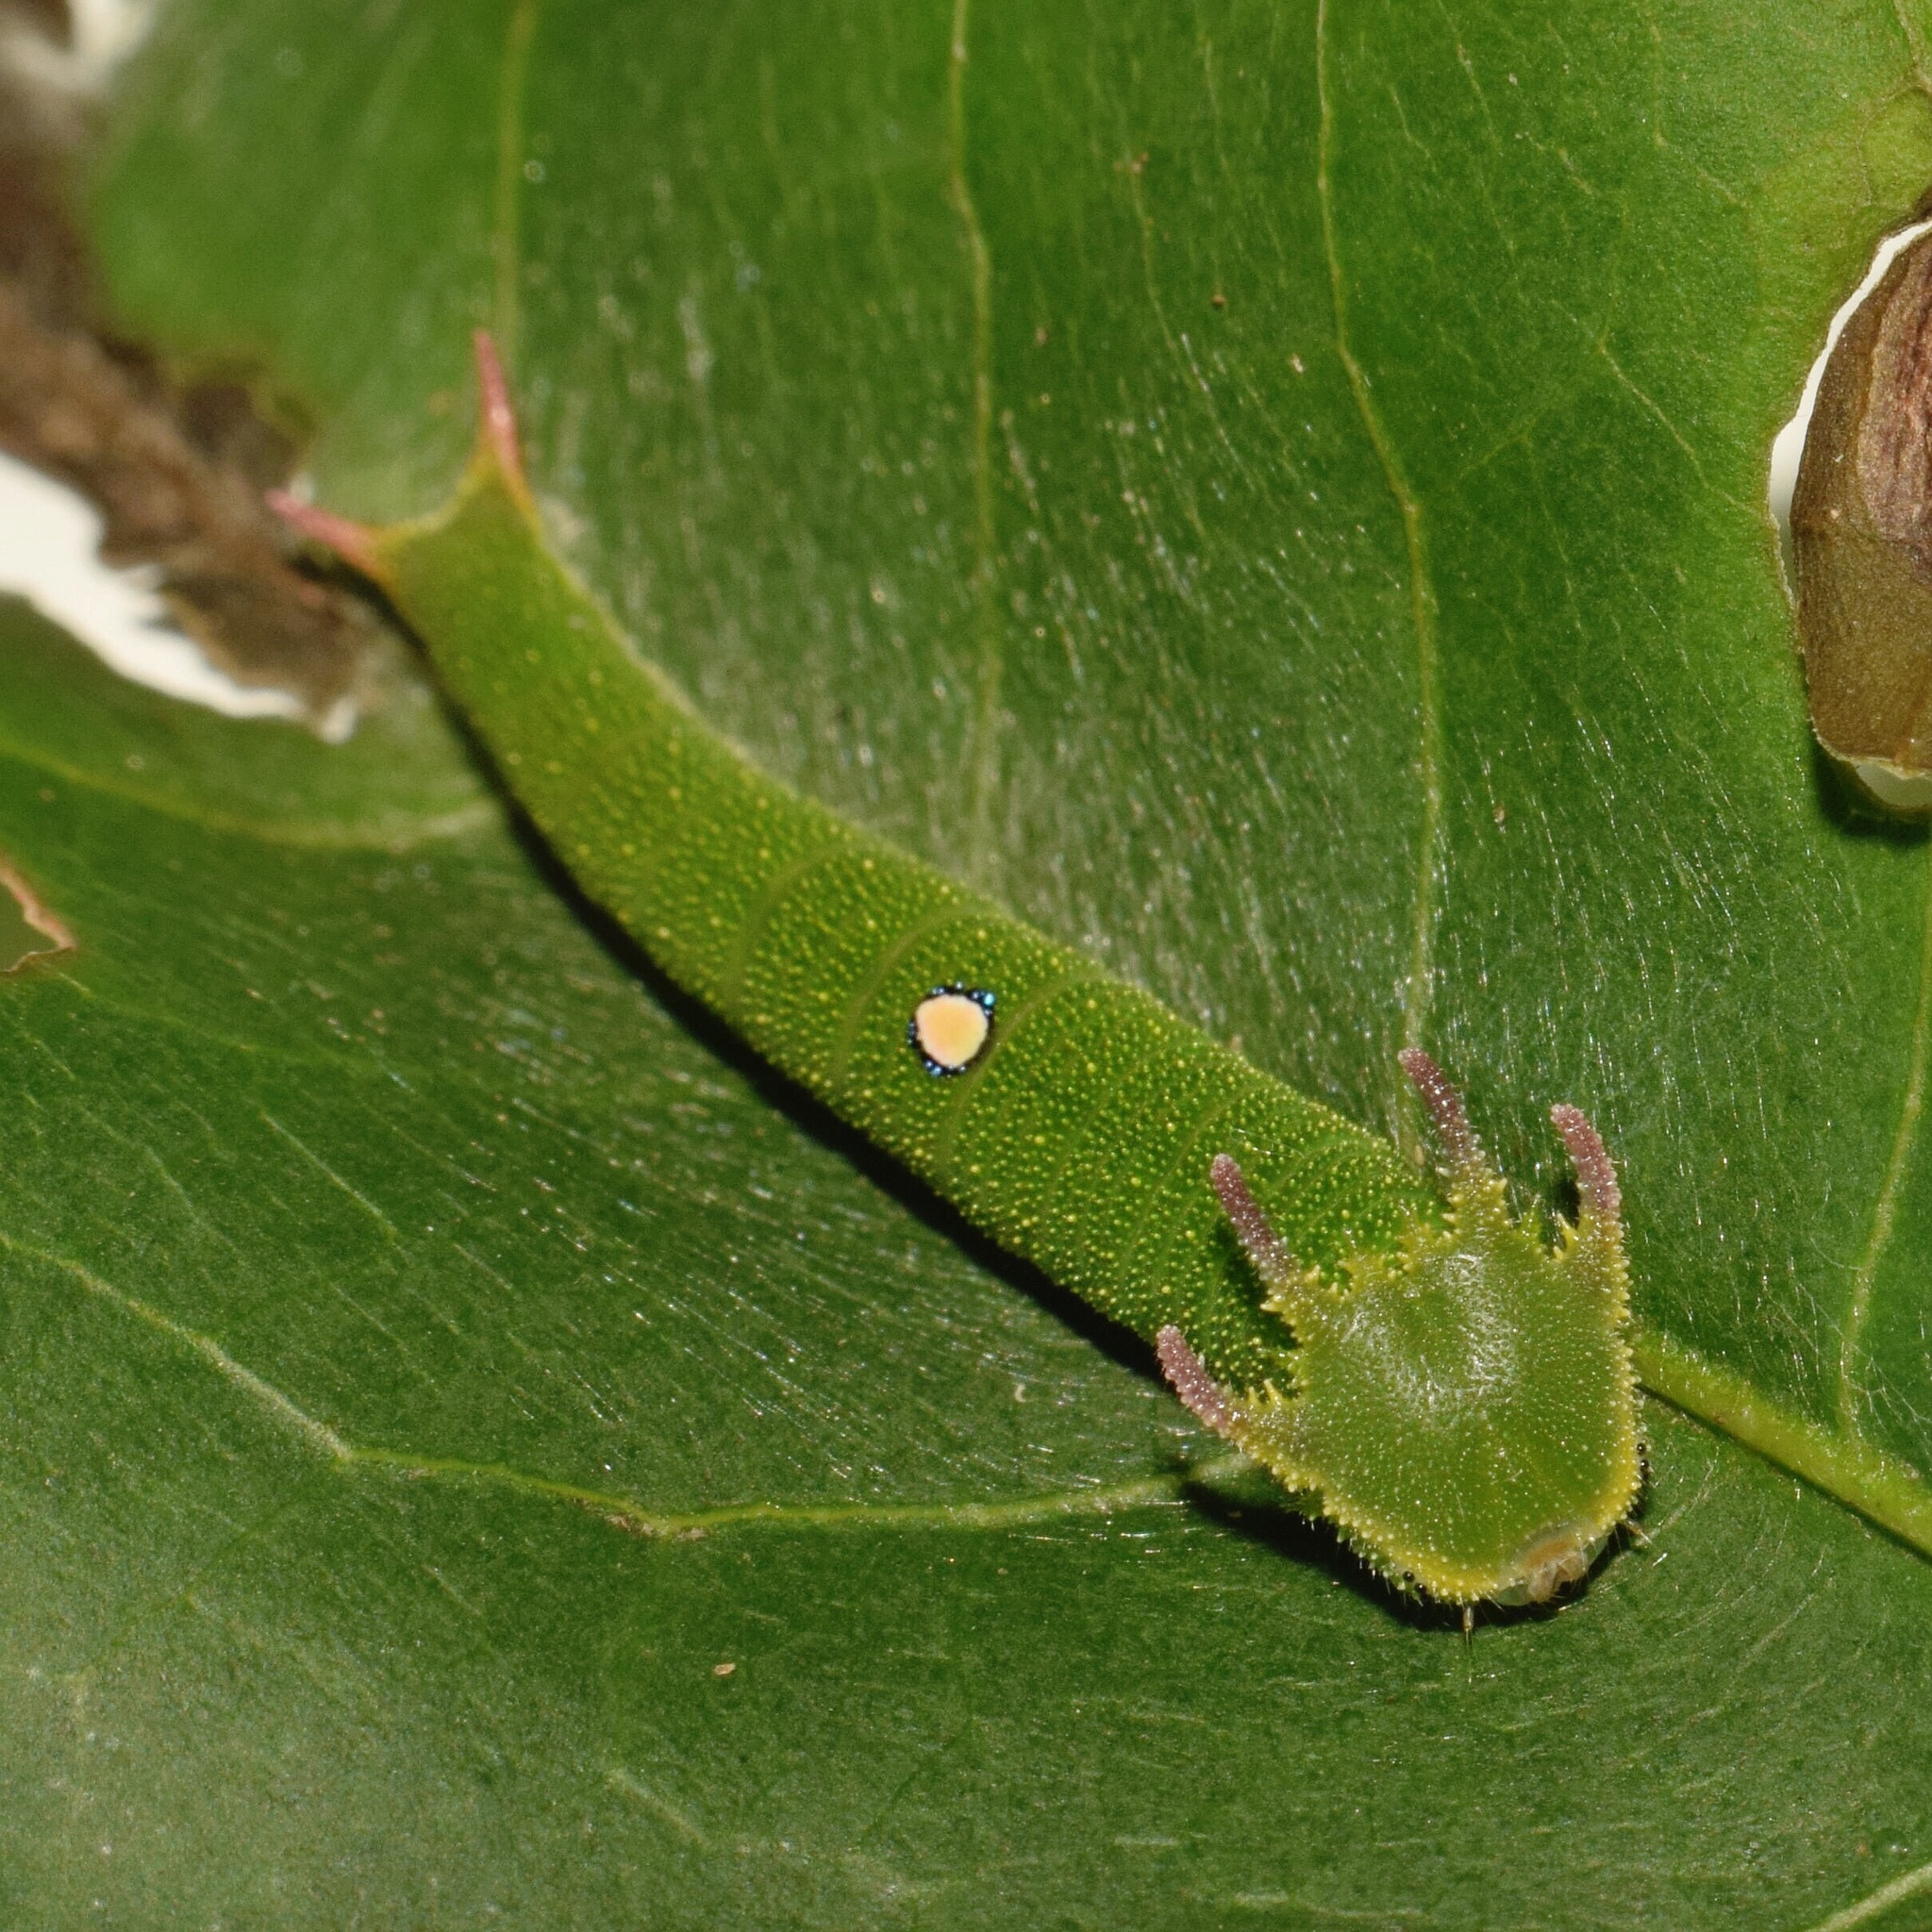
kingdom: Animalia
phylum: Arthropoda
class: Insecta
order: Lepidoptera
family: Nymphalidae
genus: Charaxes
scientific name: Charaxes brutus
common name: White-barred charaxes
